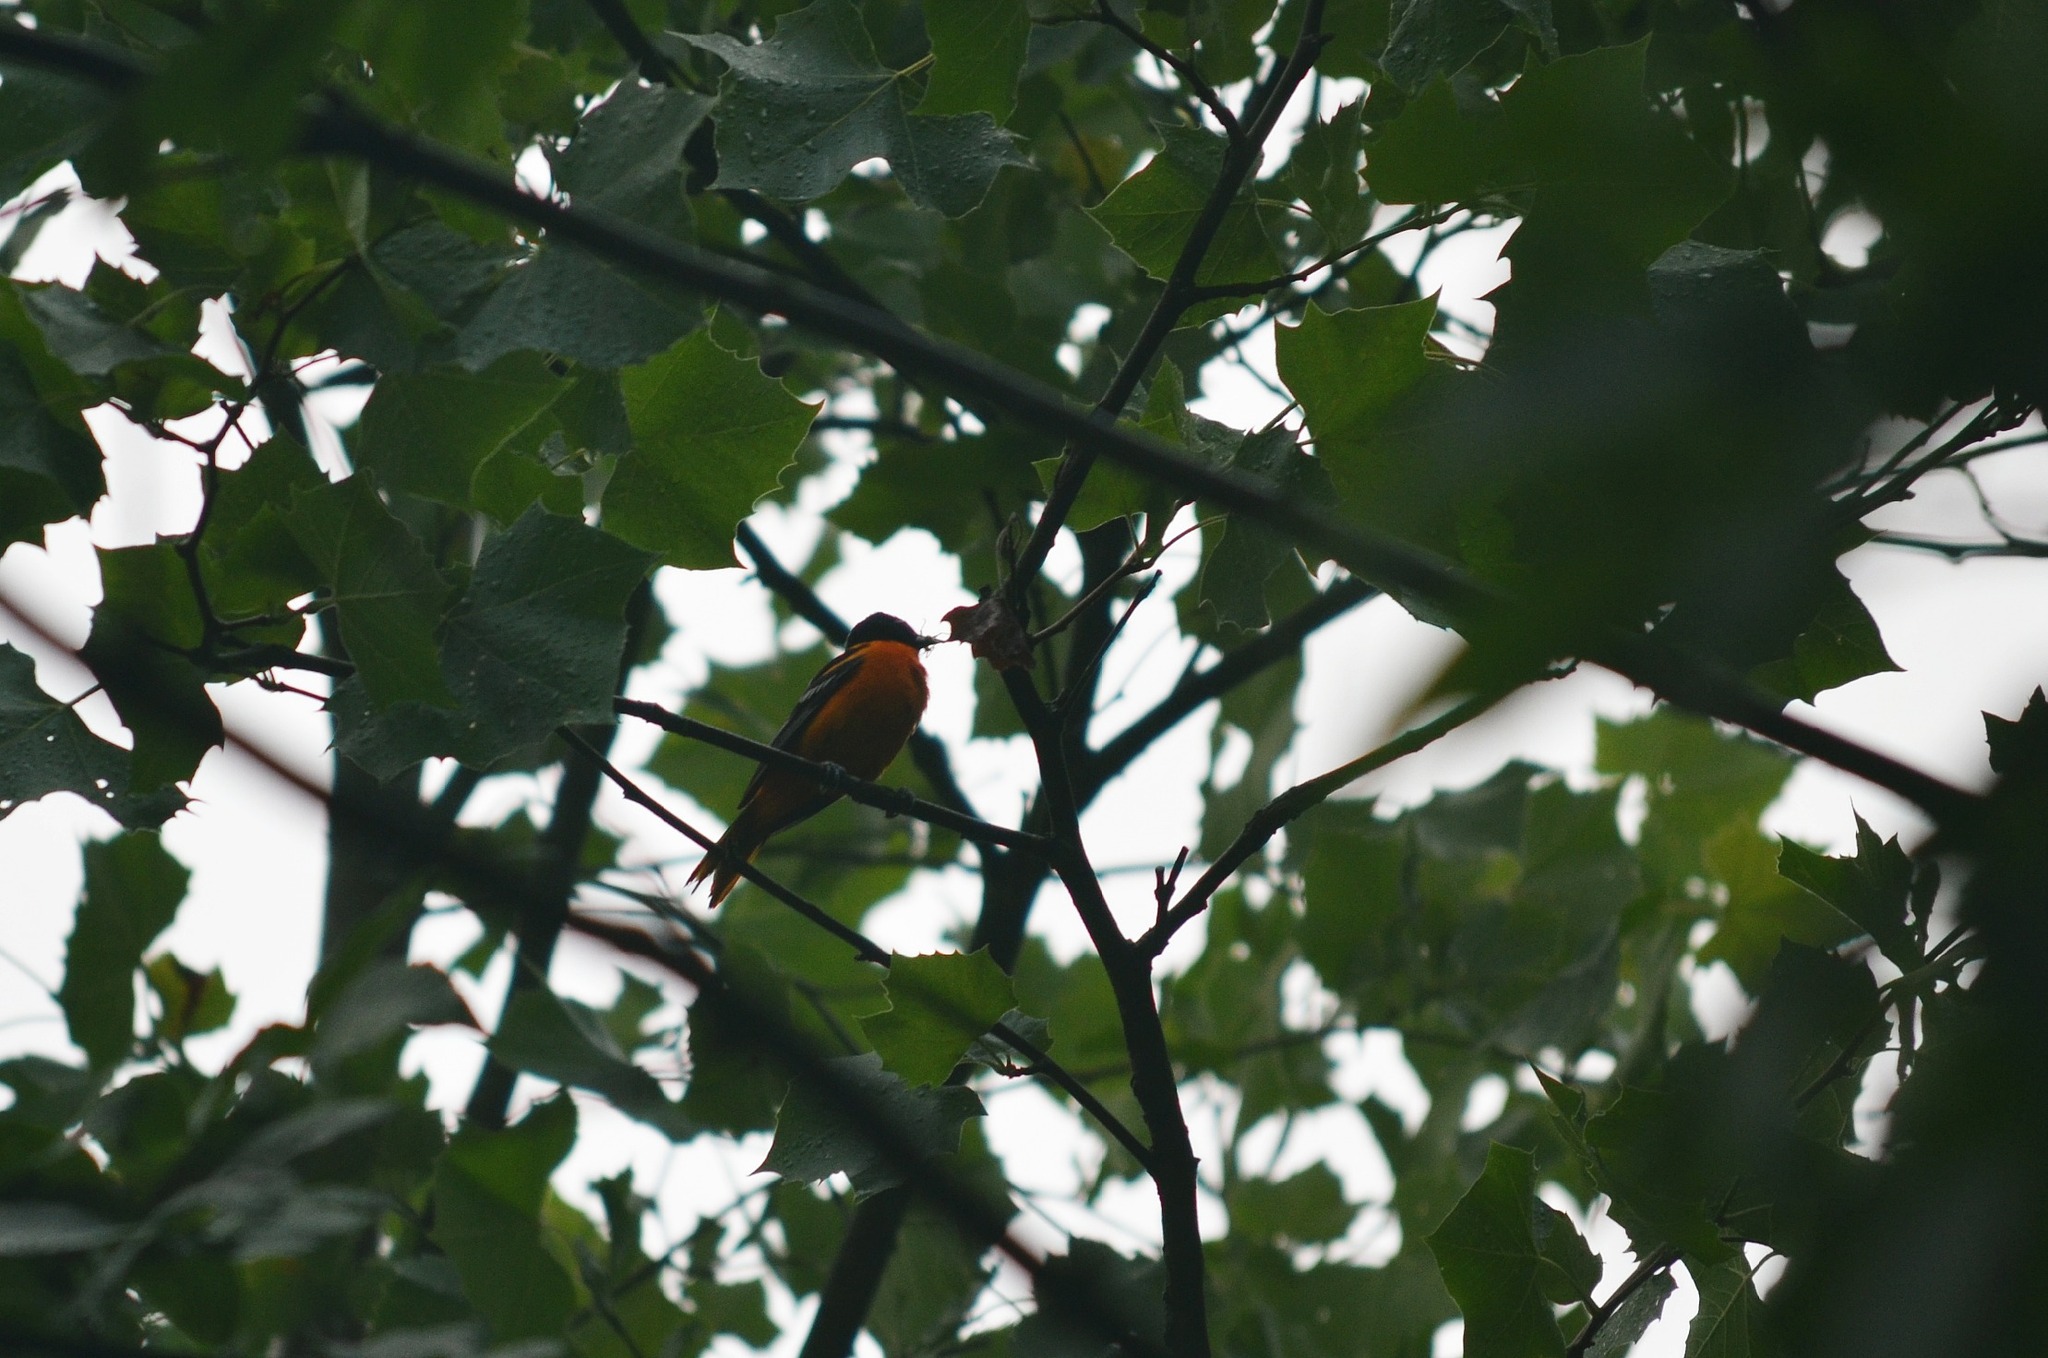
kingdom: Animalia
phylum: Chordata
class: Aves
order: Passeriformes
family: Icteridae
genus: Icterus
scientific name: Icterus galbula
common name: Baltimore oriole
